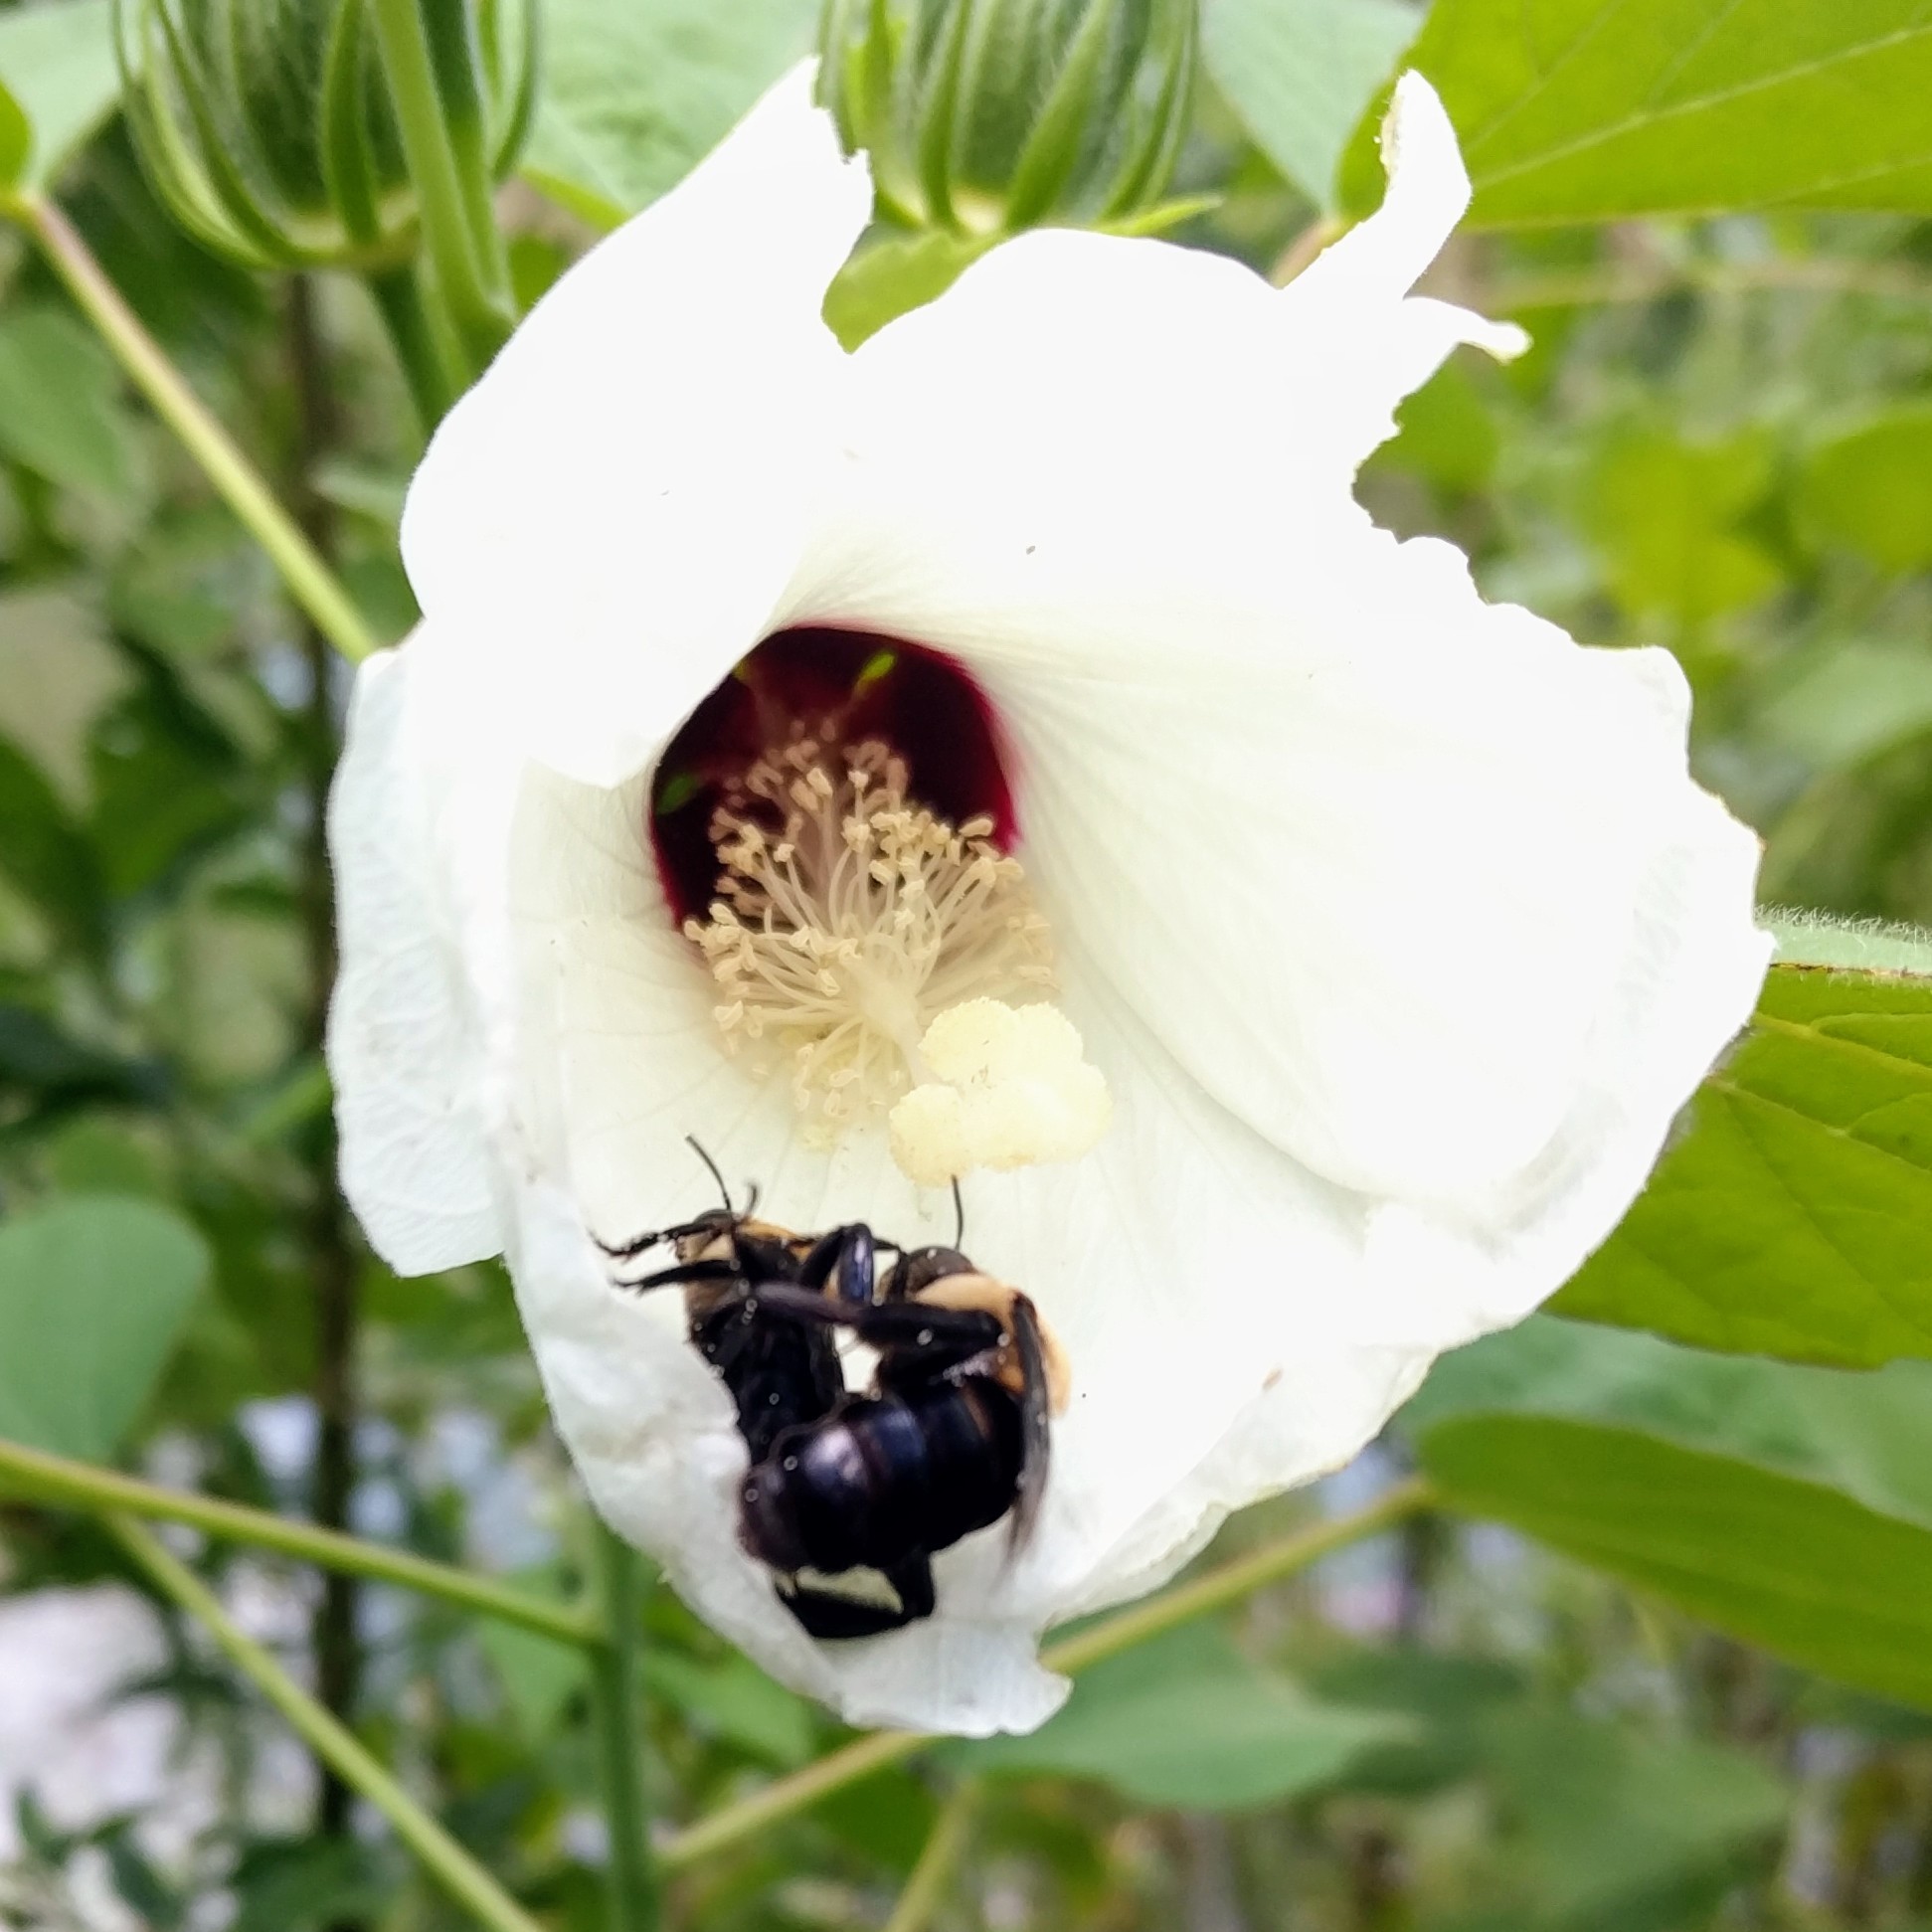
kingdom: Animalia
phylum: Arthropoda
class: Insecta
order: Hymenoptera
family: Apidae
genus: Ptilothrix
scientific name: Ptilothrix bombiformis
